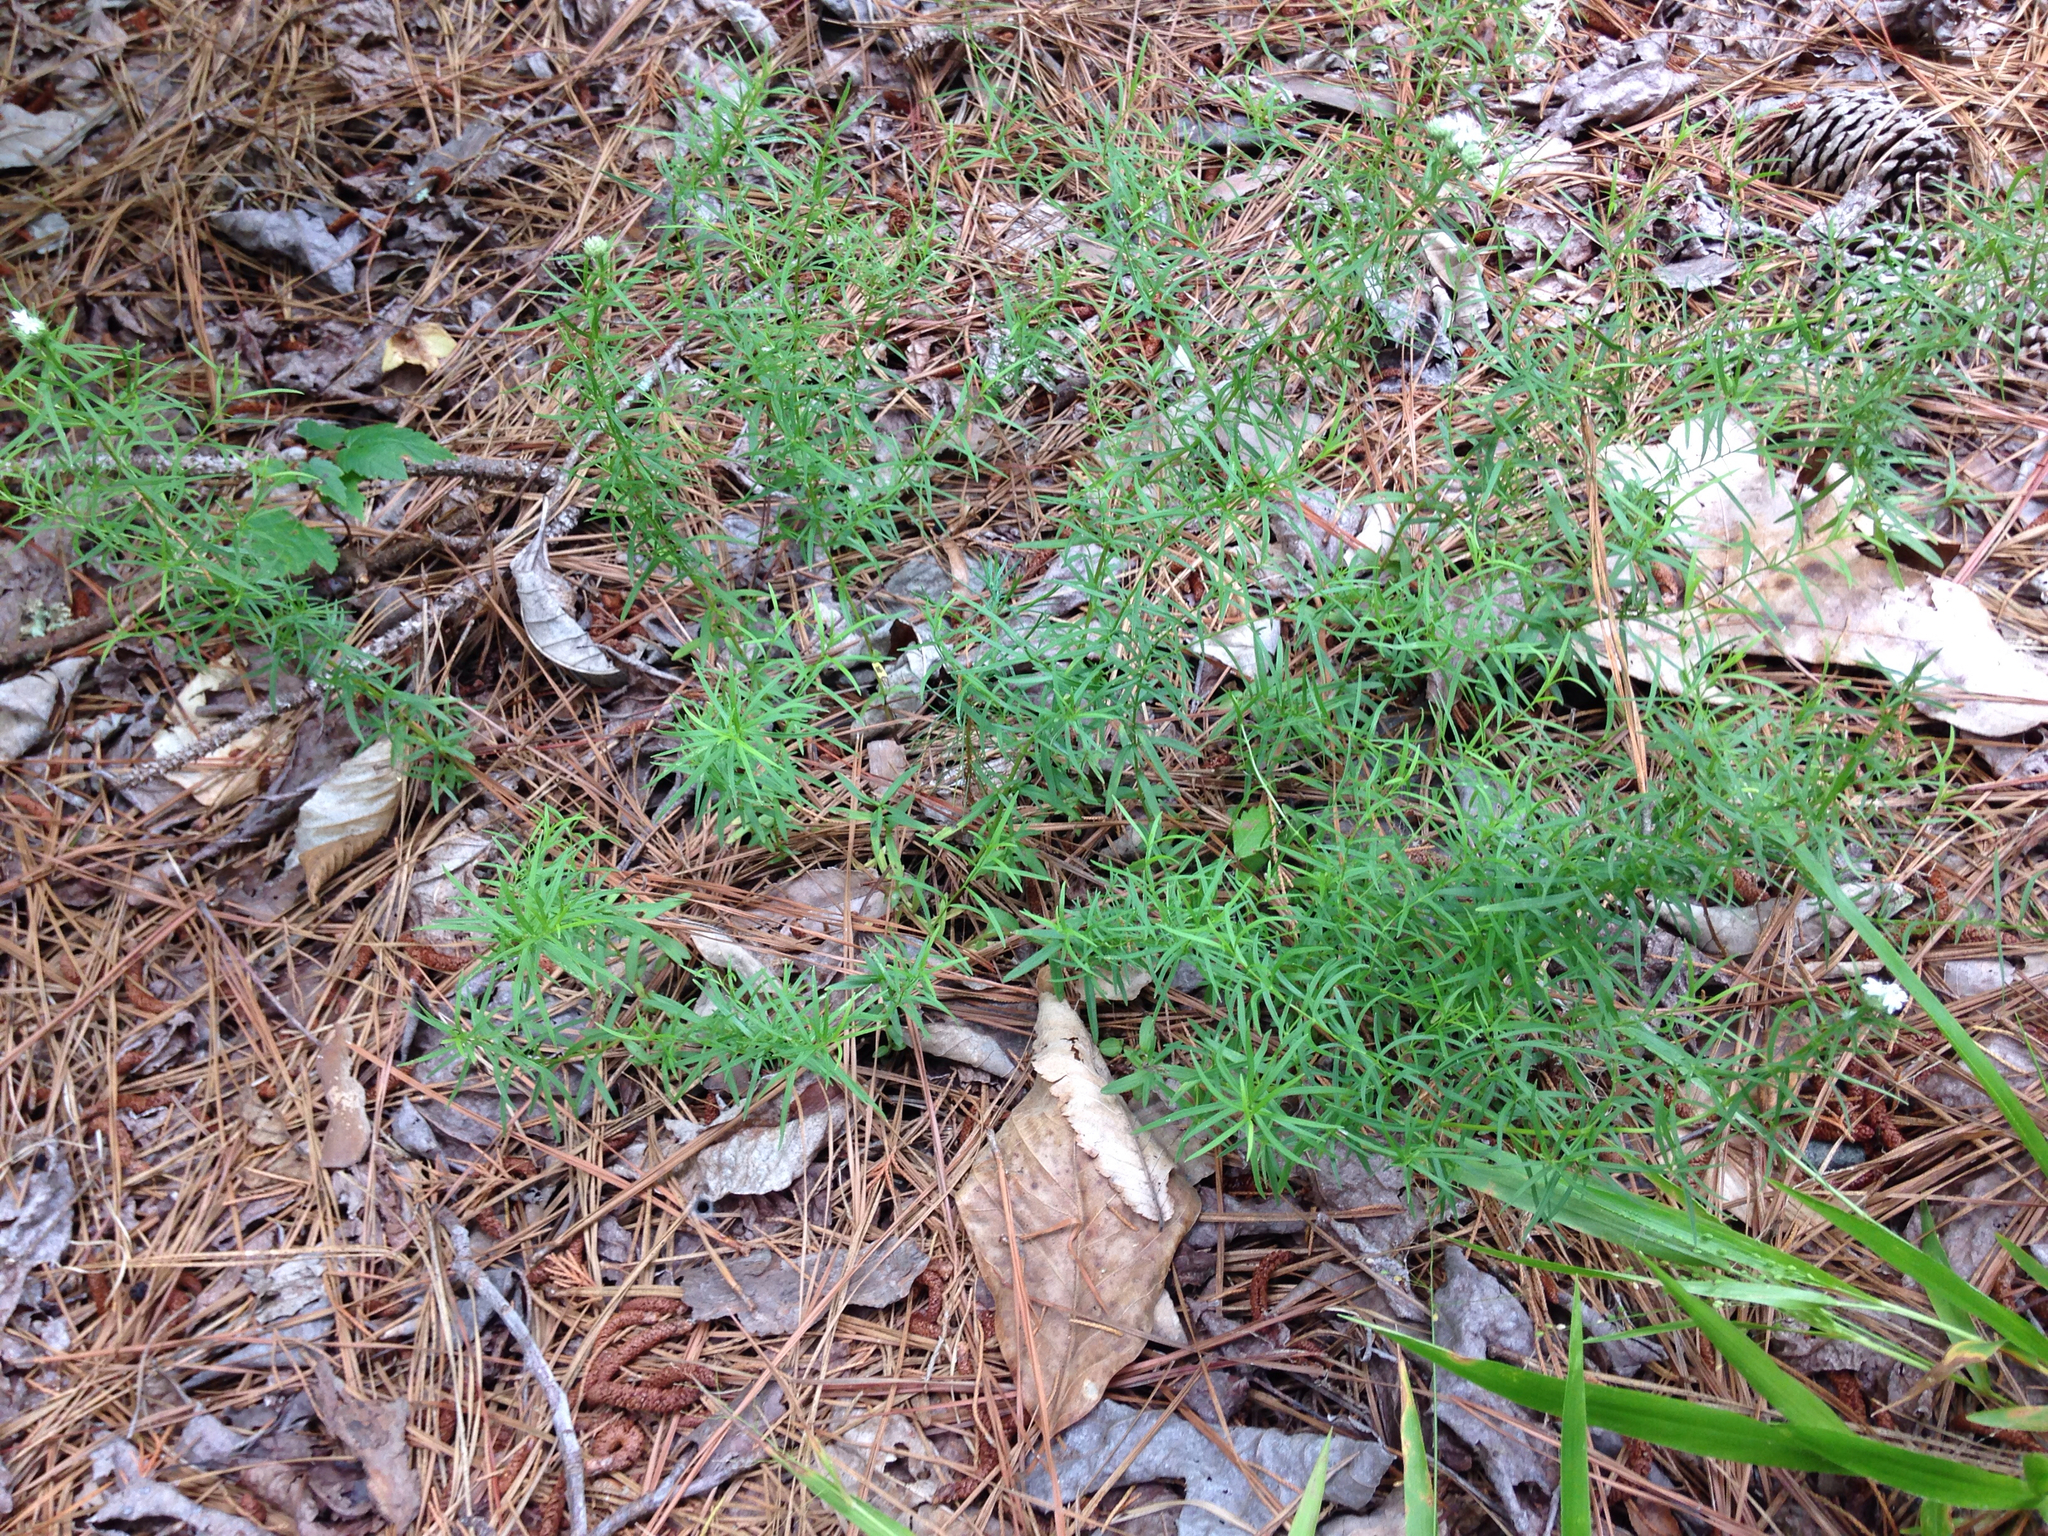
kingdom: Plantae
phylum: Tracheophyta
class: Magnoliopsida
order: Lamiales
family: Lamiaceae
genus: Pycnanthemum
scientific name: Pycnanthemum tenuifolium
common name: Narrow-leaf mountain-mint
